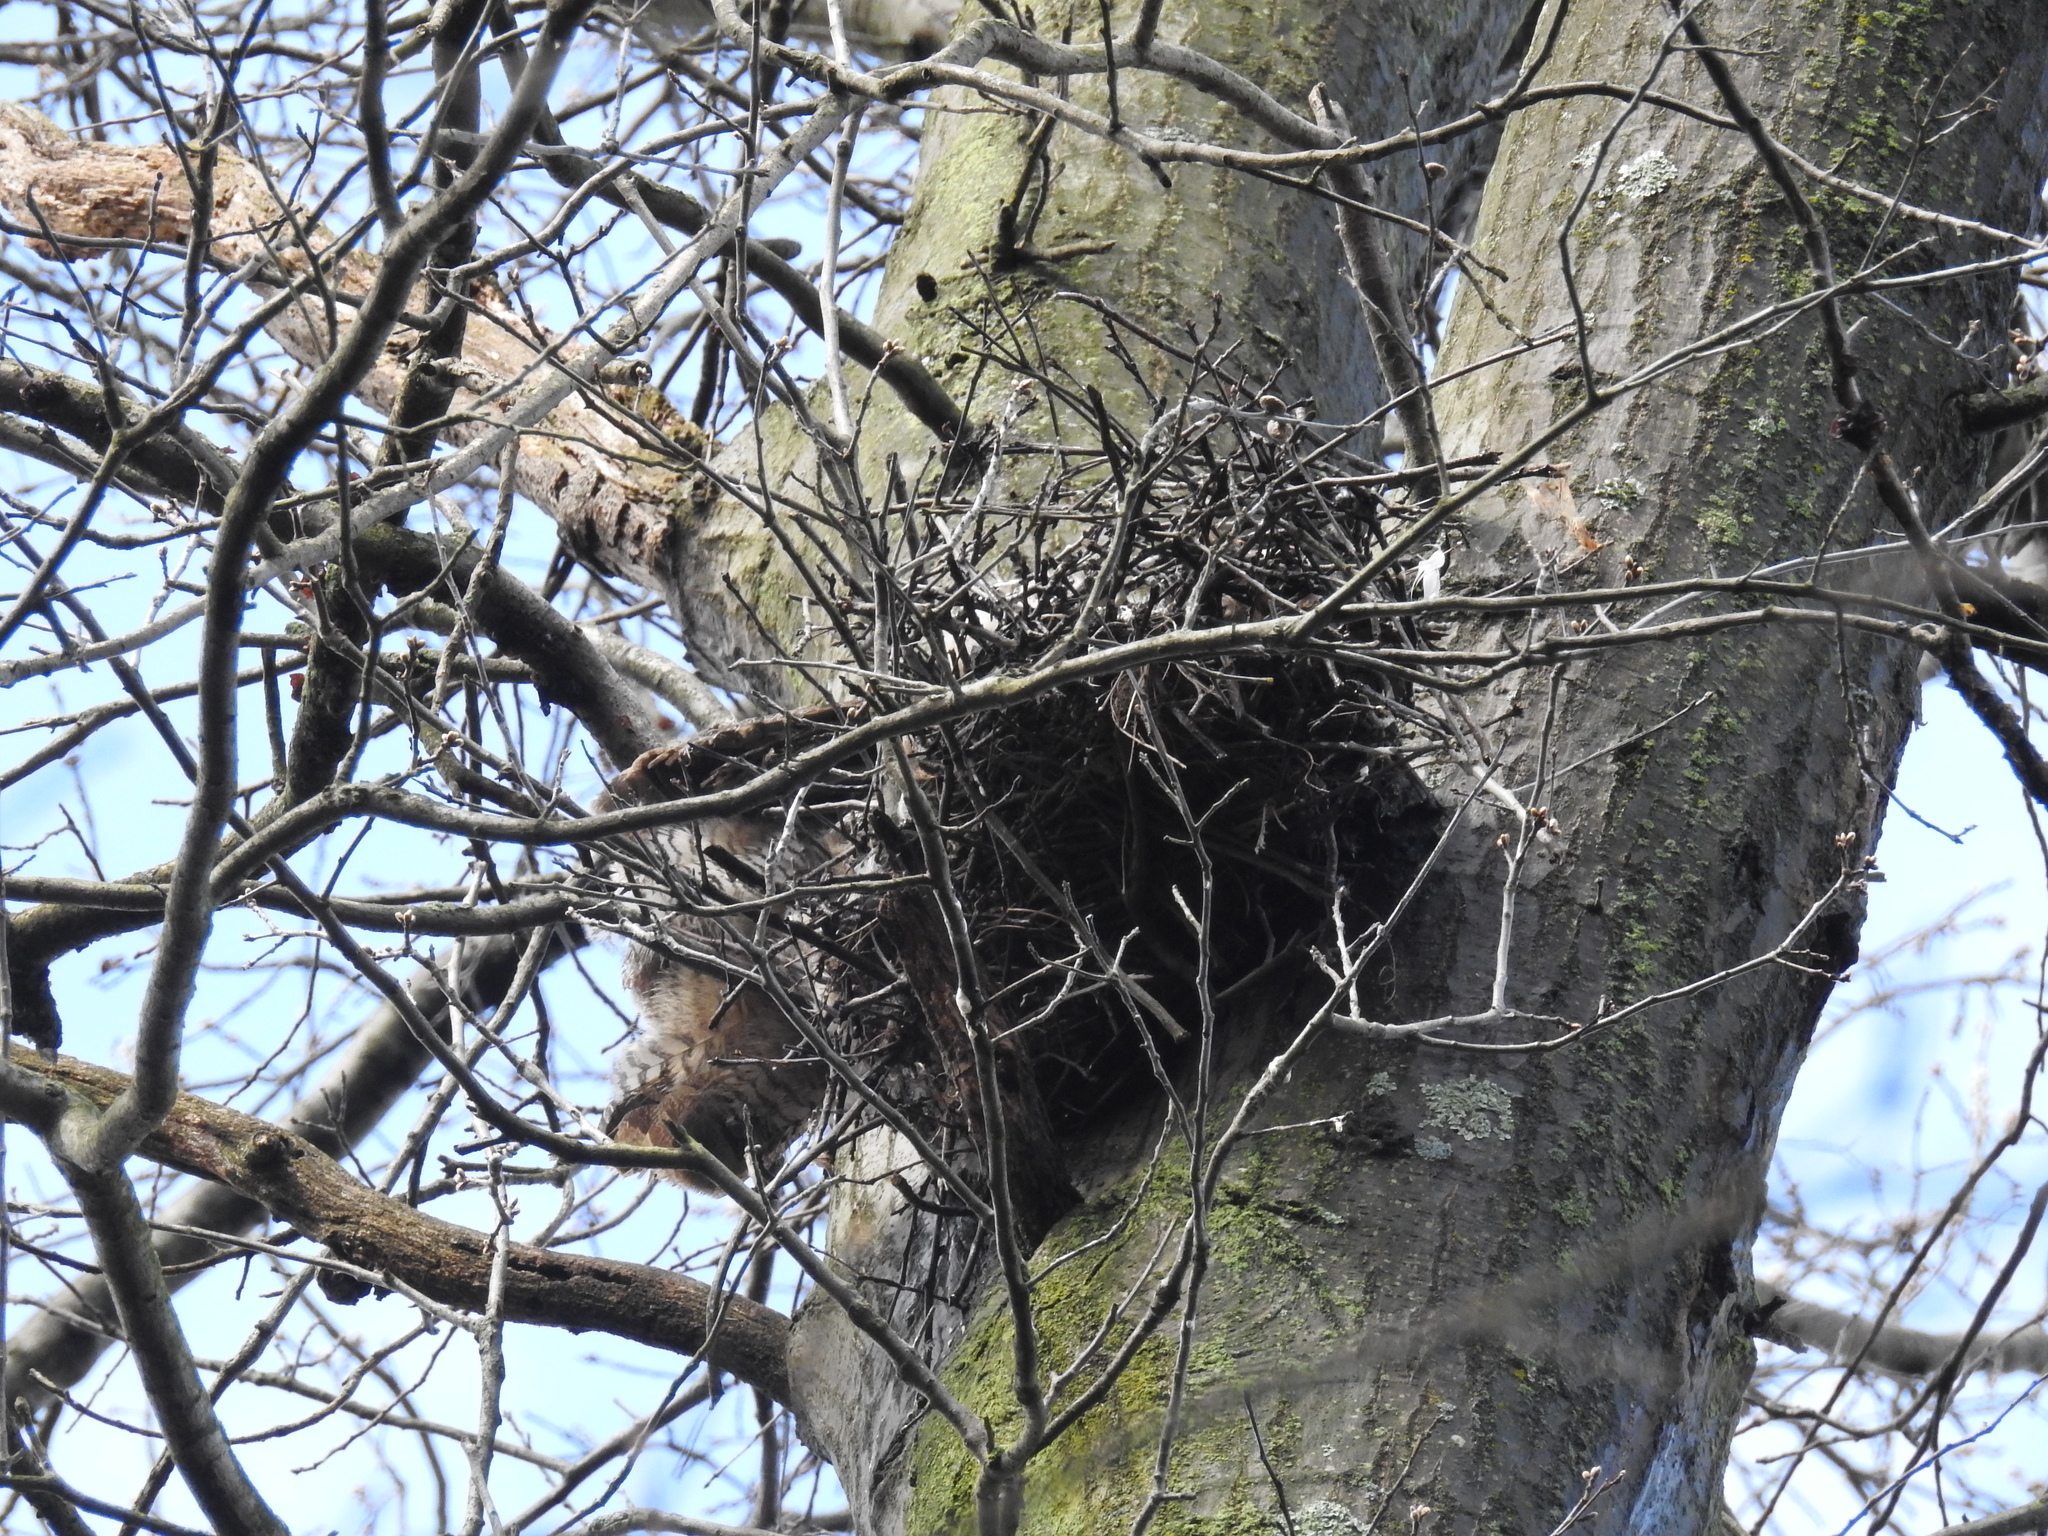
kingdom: Animalia
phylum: Chordata
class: Aves
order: Strigiformes
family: Strigidae
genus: Bubo
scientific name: Bubo virginianus
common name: Great horned owl
